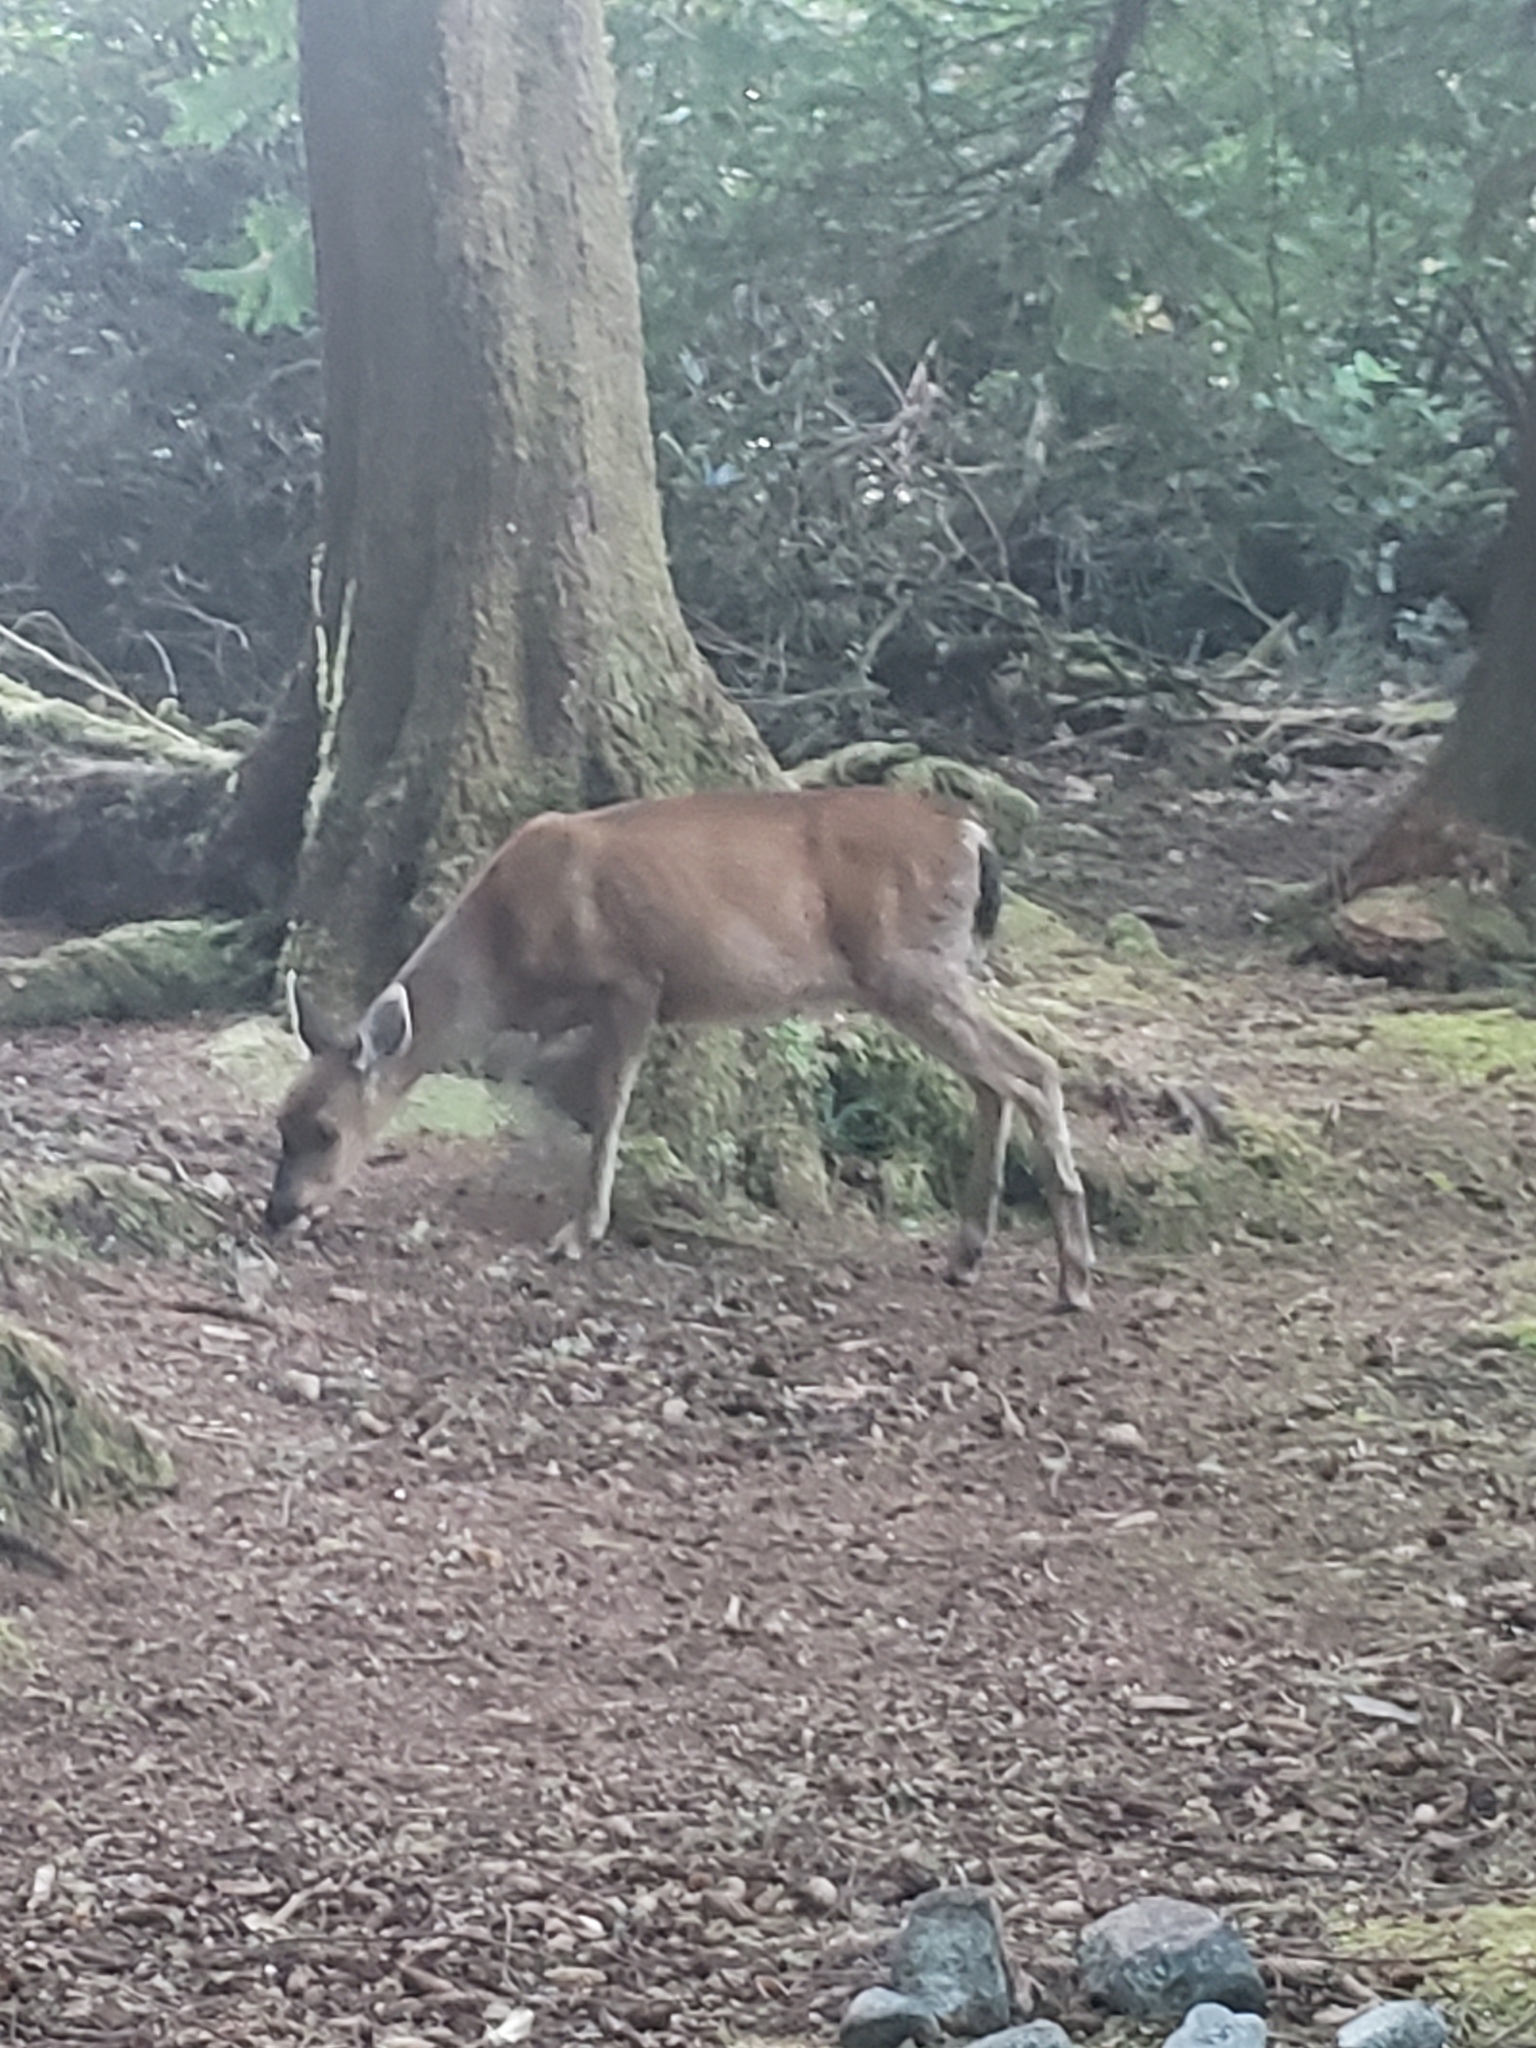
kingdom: Animalia
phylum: Chordata
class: Mammalia
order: Artiodactyla
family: Cervidae
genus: Odocoileus
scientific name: Odocoileus hemionus
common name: Mule deer
